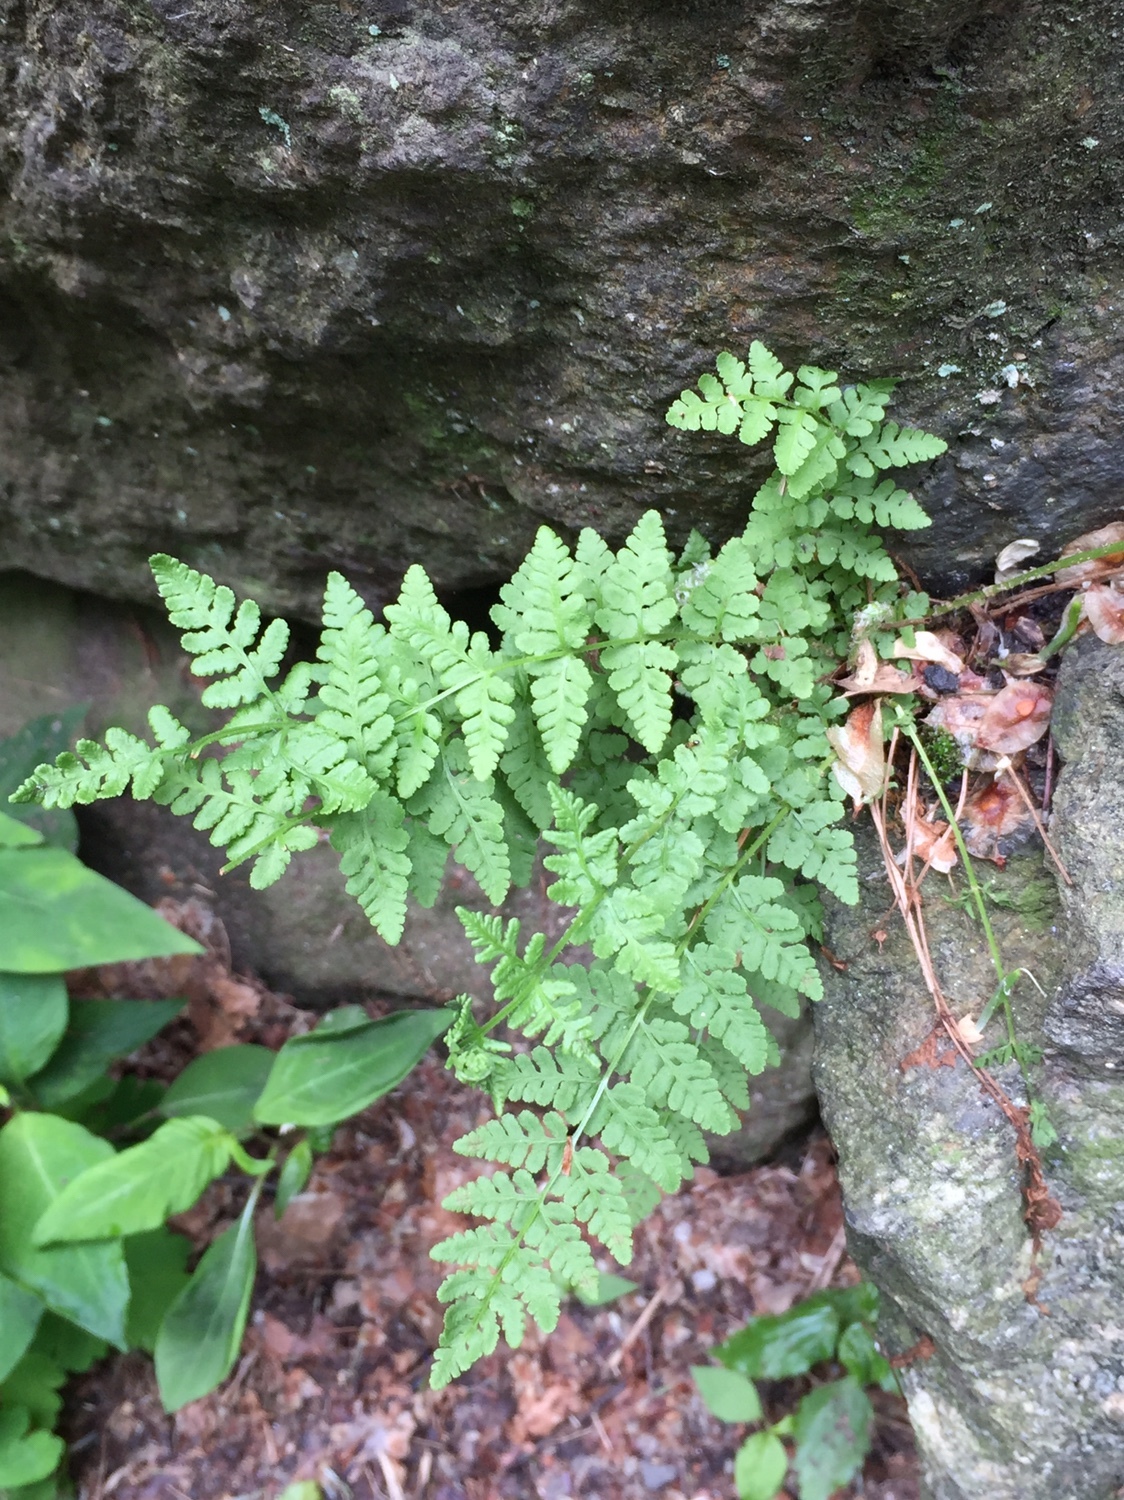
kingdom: Plantae
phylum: Tracheophyta
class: Polypodiopsida
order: Polypodiales
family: Woodsiaceae
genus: Physematium
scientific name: Physematium obtusum
